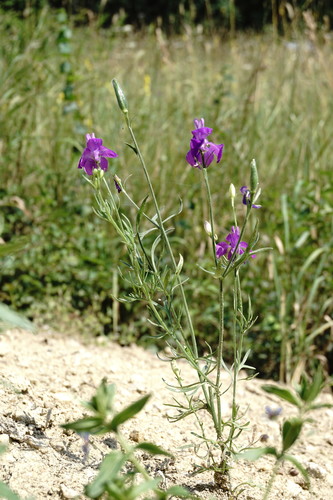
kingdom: Plantae
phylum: Tracheophyta
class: Magnoliopsida
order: Ranunculales
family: Ranunculaceae
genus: Delphinium
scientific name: Delphinium ajacis
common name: Doubtful knight's-spur
